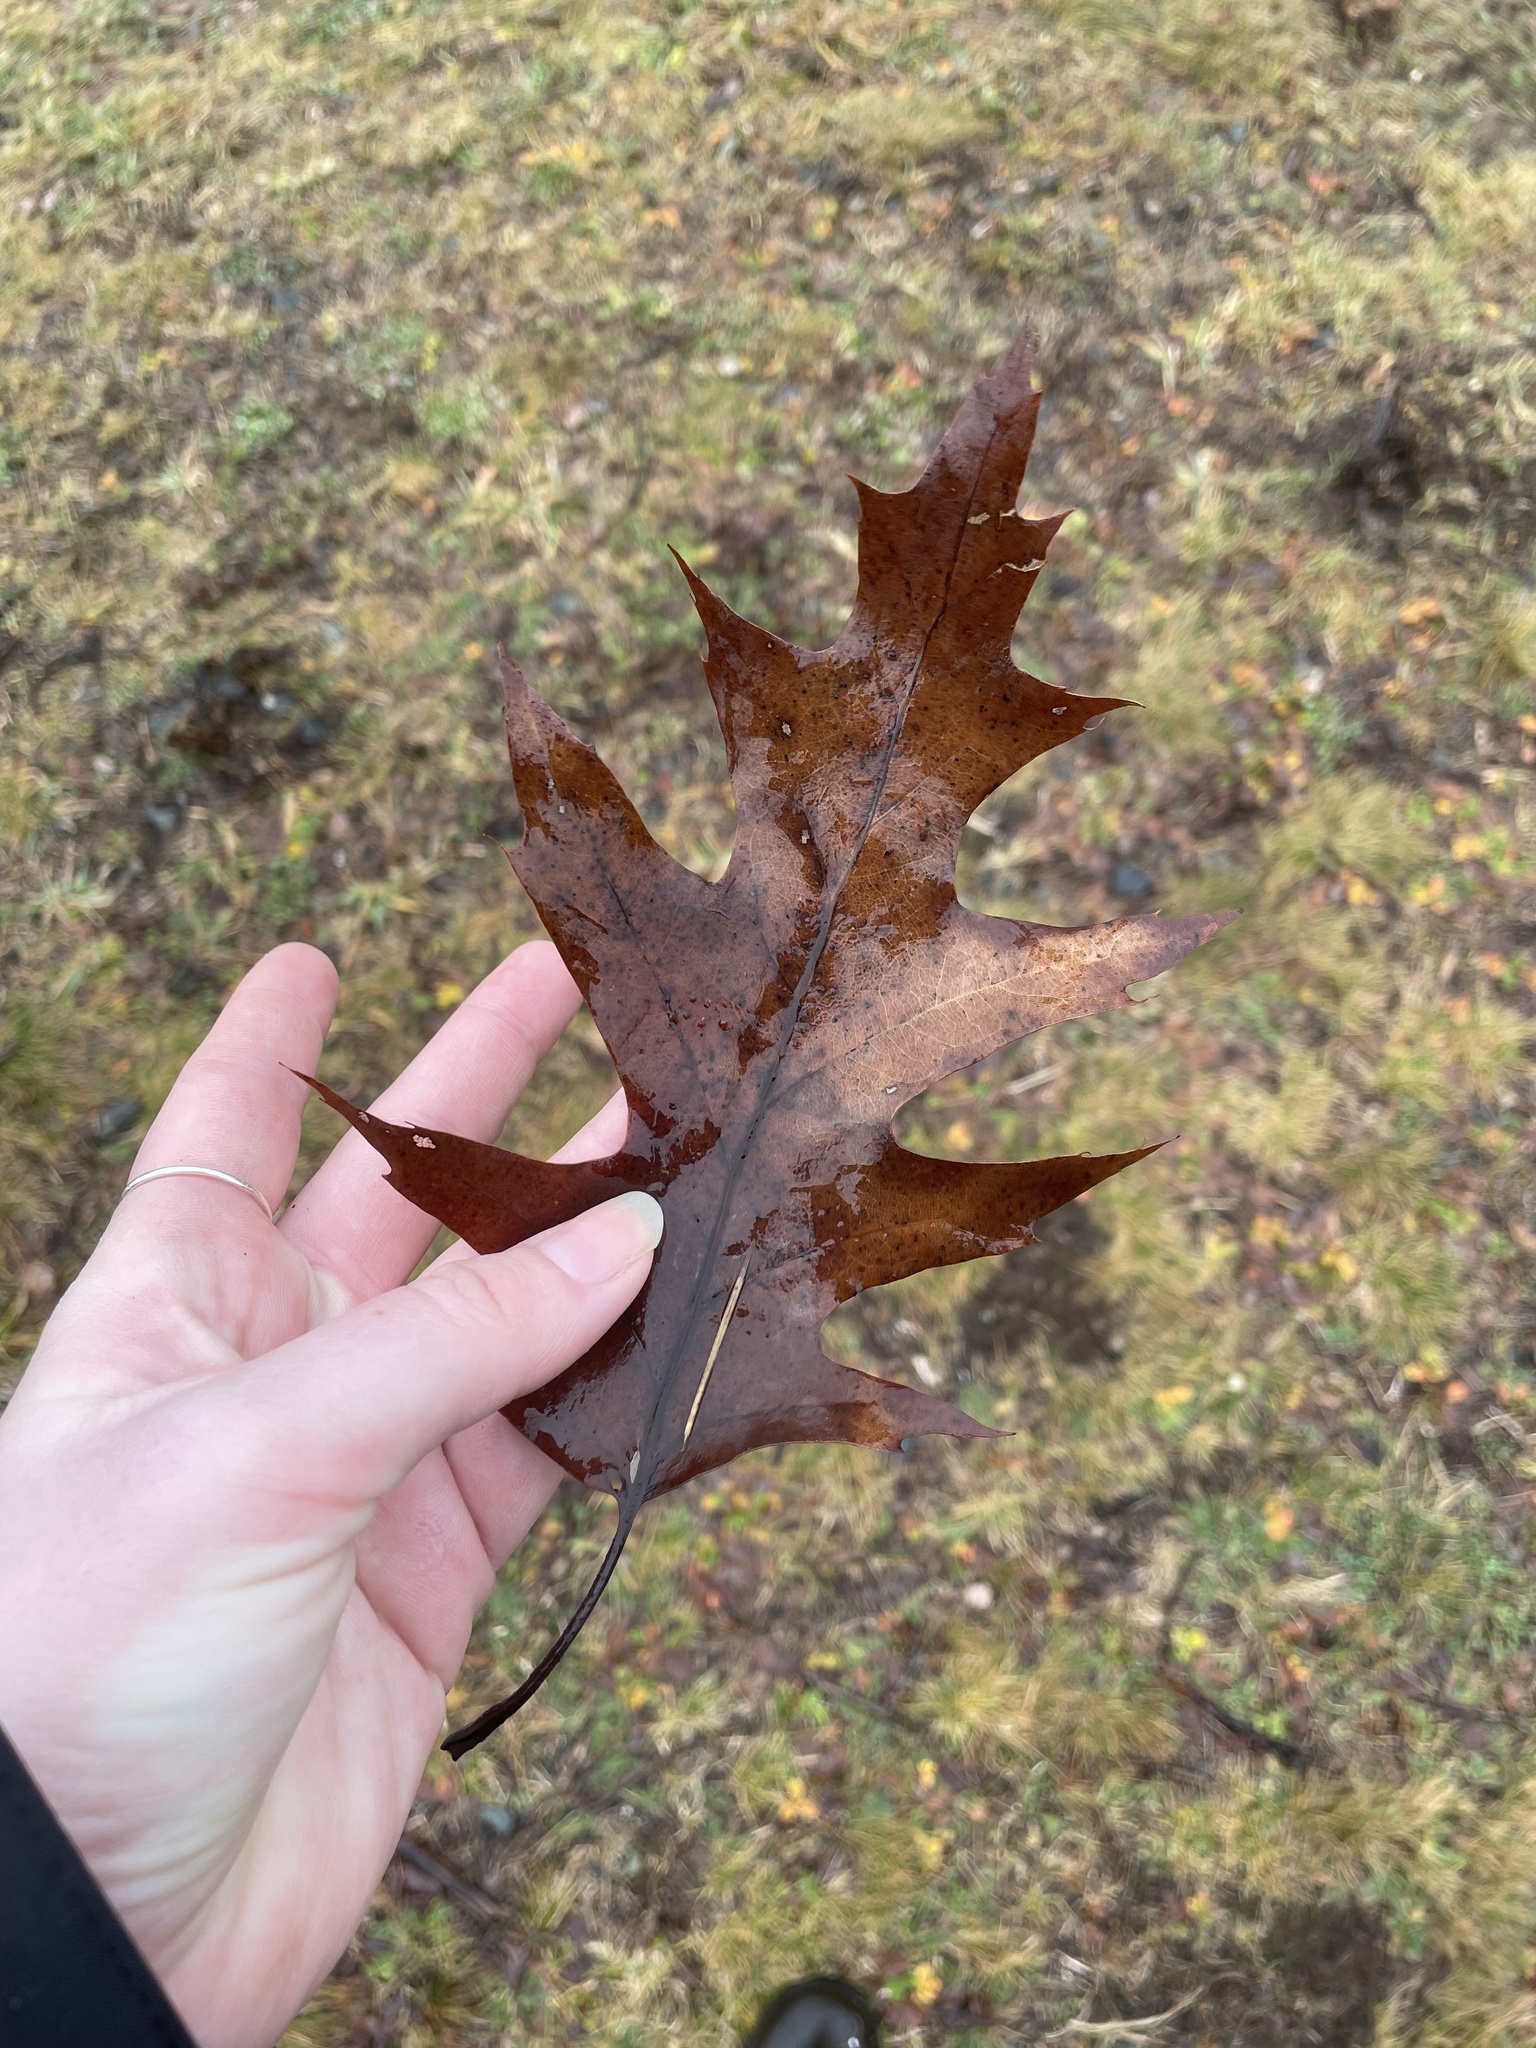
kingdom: Plantae
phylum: Tracheophyta
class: Magnoliopsida
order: Fagales
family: Fagaceae
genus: Quercus
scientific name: Quercus rubra
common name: Red oak
